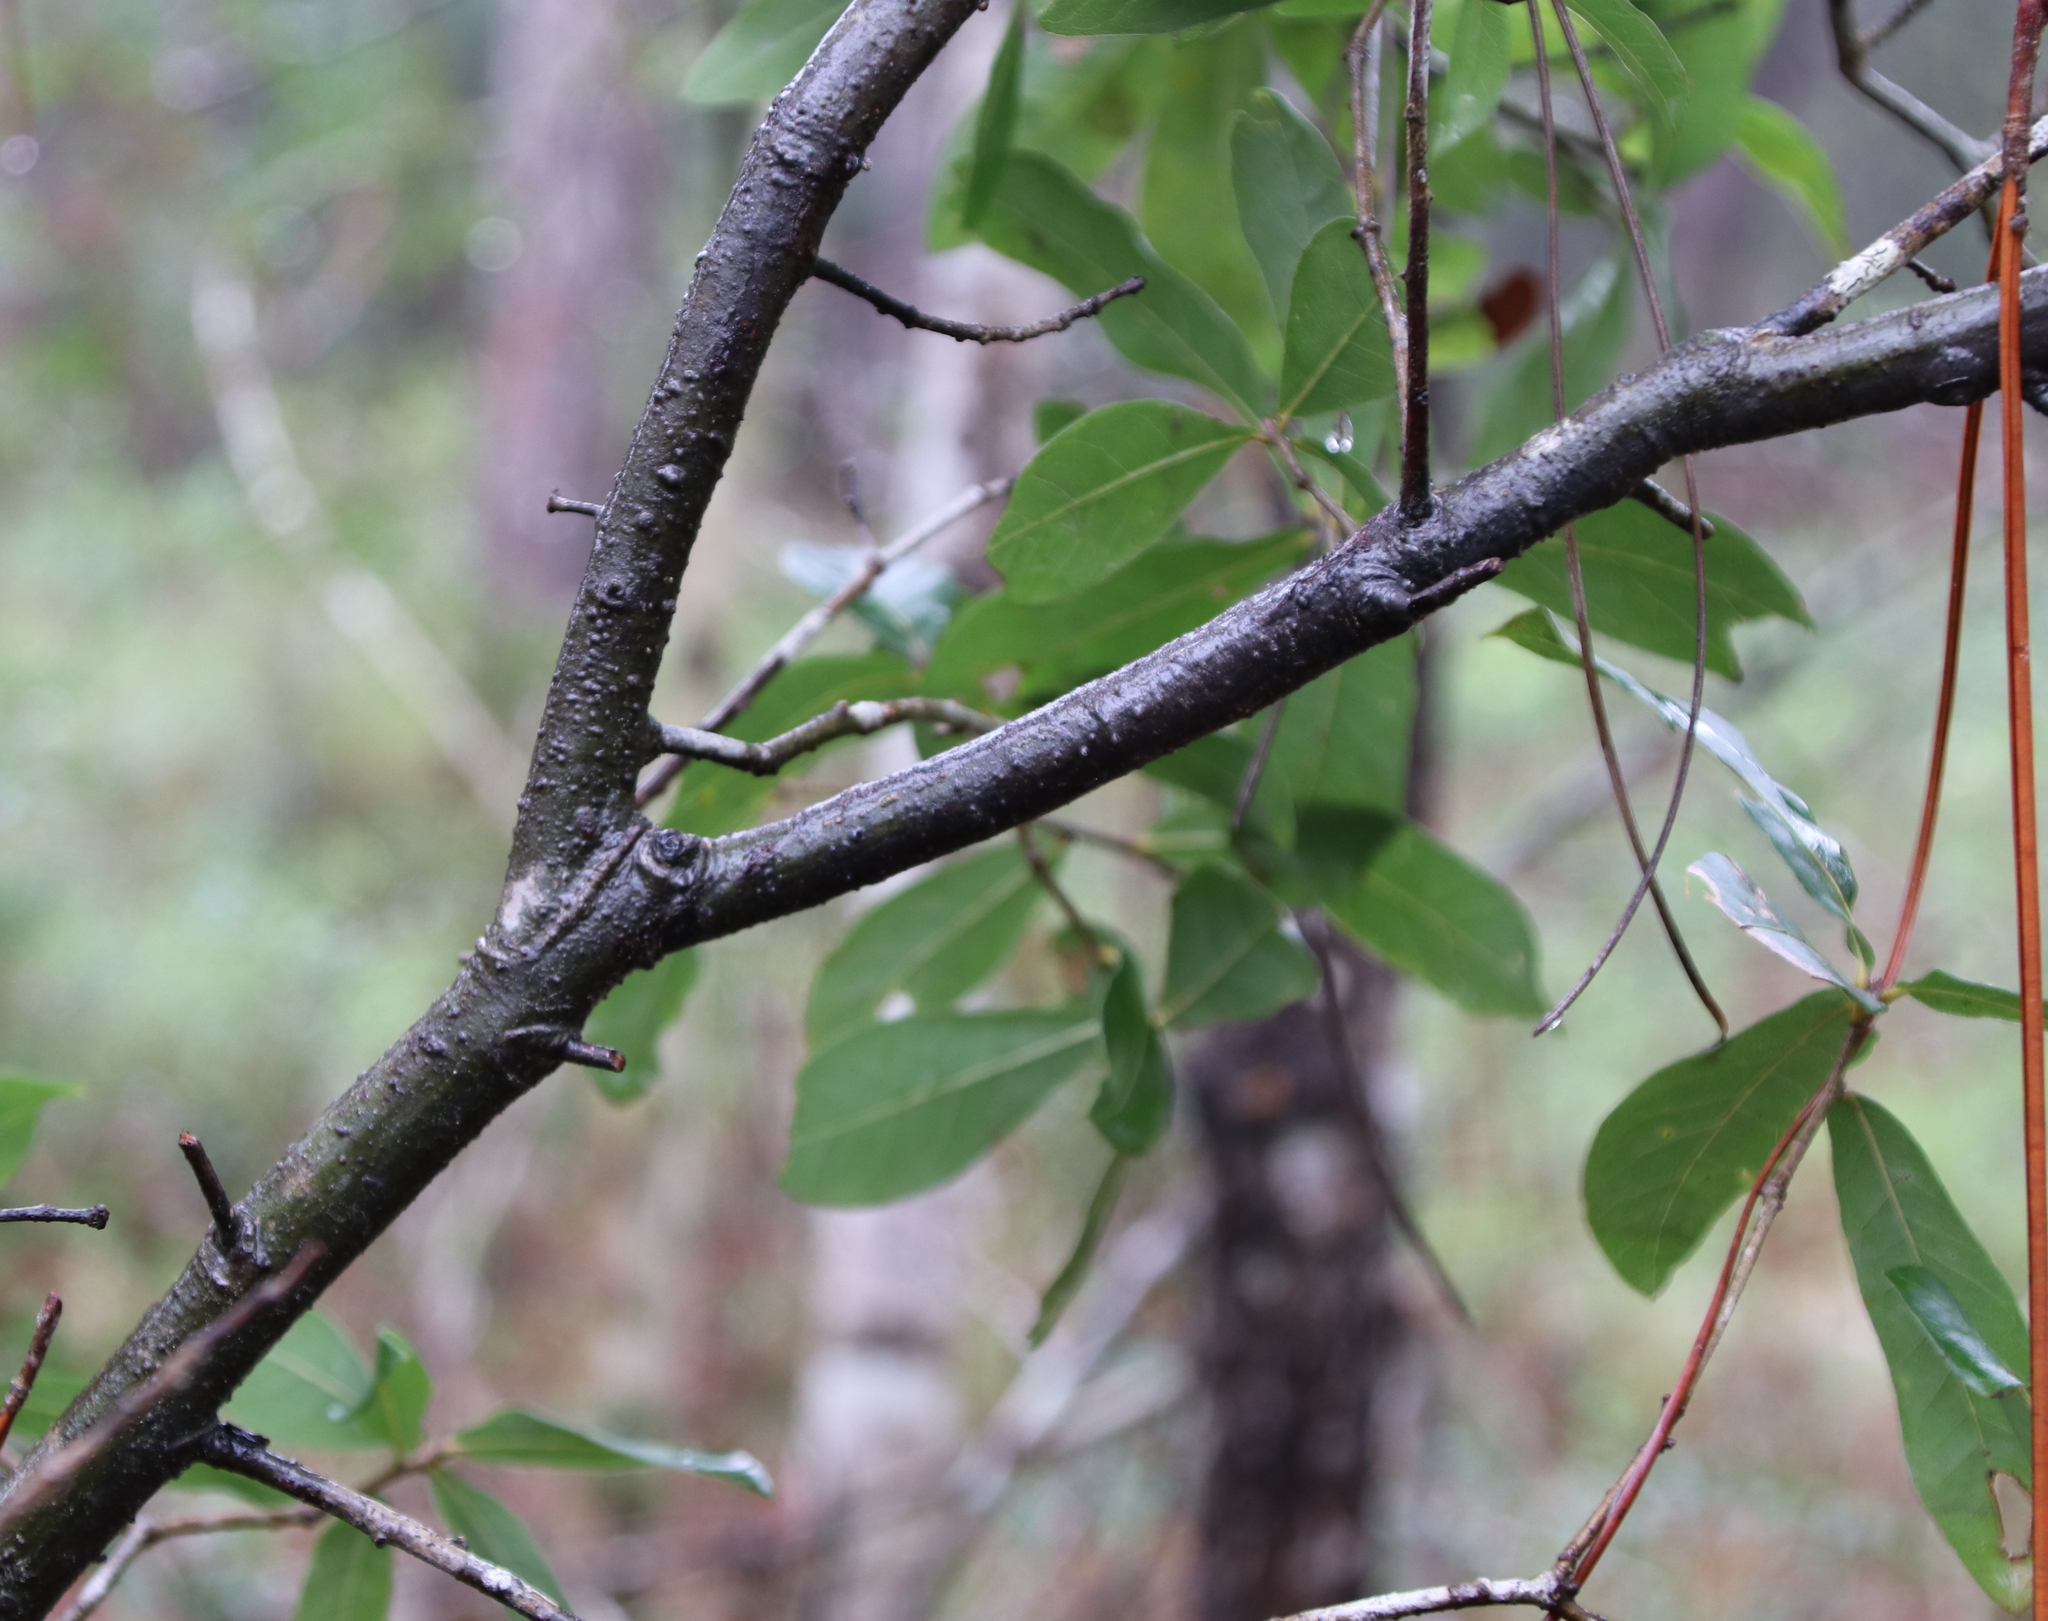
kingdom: Plantae
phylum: Tracheophyta
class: Magnoliopsida
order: Fagales
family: Fagaceae
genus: Quercus
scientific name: Quercus hemisphaerica
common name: Darlington oak
